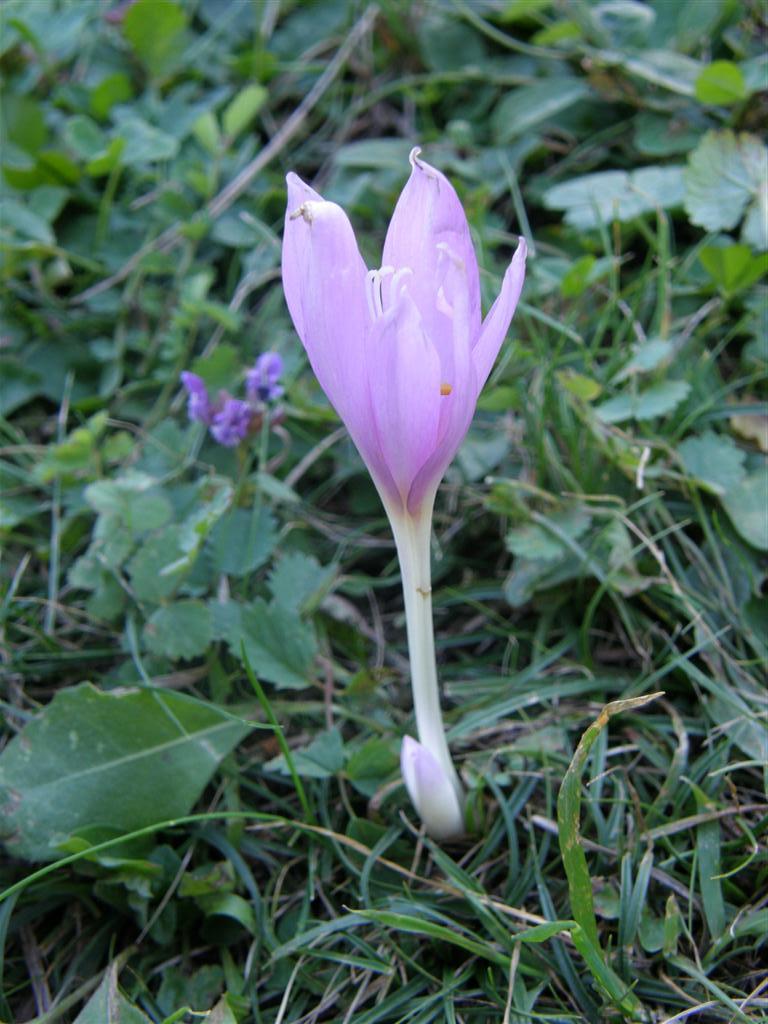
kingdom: Plantae
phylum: Tracheophyta
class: Liliopsida
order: Liliales
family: Colchicaceae
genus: Colchicum
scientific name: Colchicum autumnale
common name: Autumn crocus
